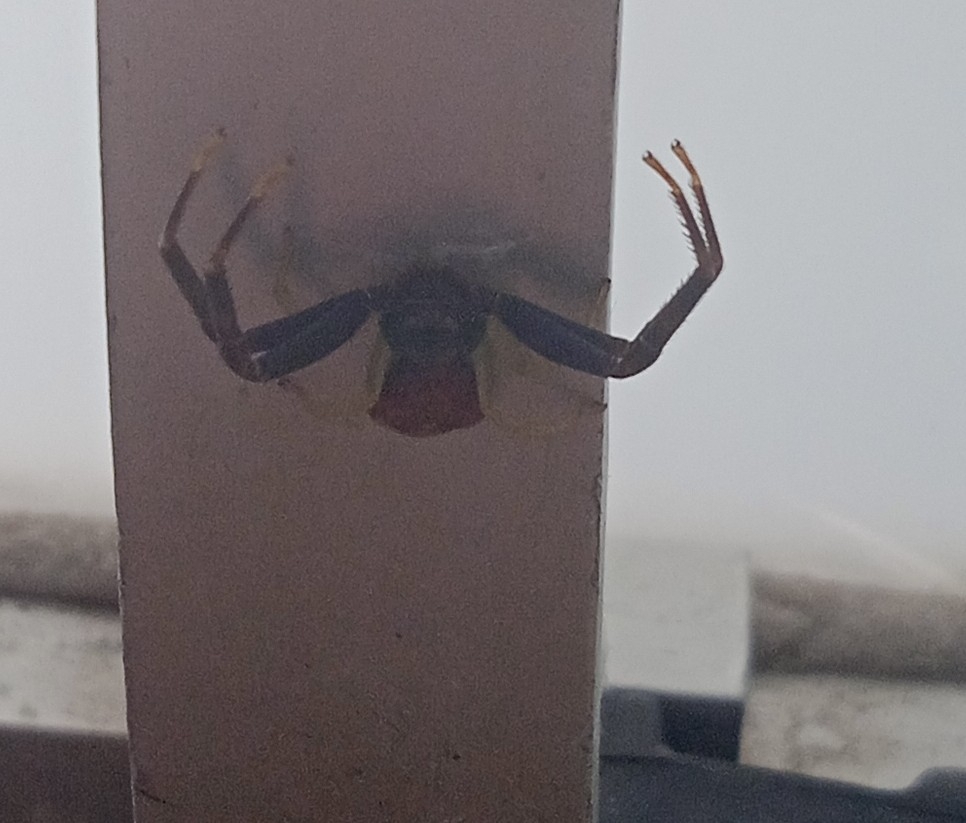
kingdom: Animalia
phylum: Arthropoda
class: Arachnida
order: Araneae
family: Thomisidae
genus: Runcinioides
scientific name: Runcinioides litteratus
